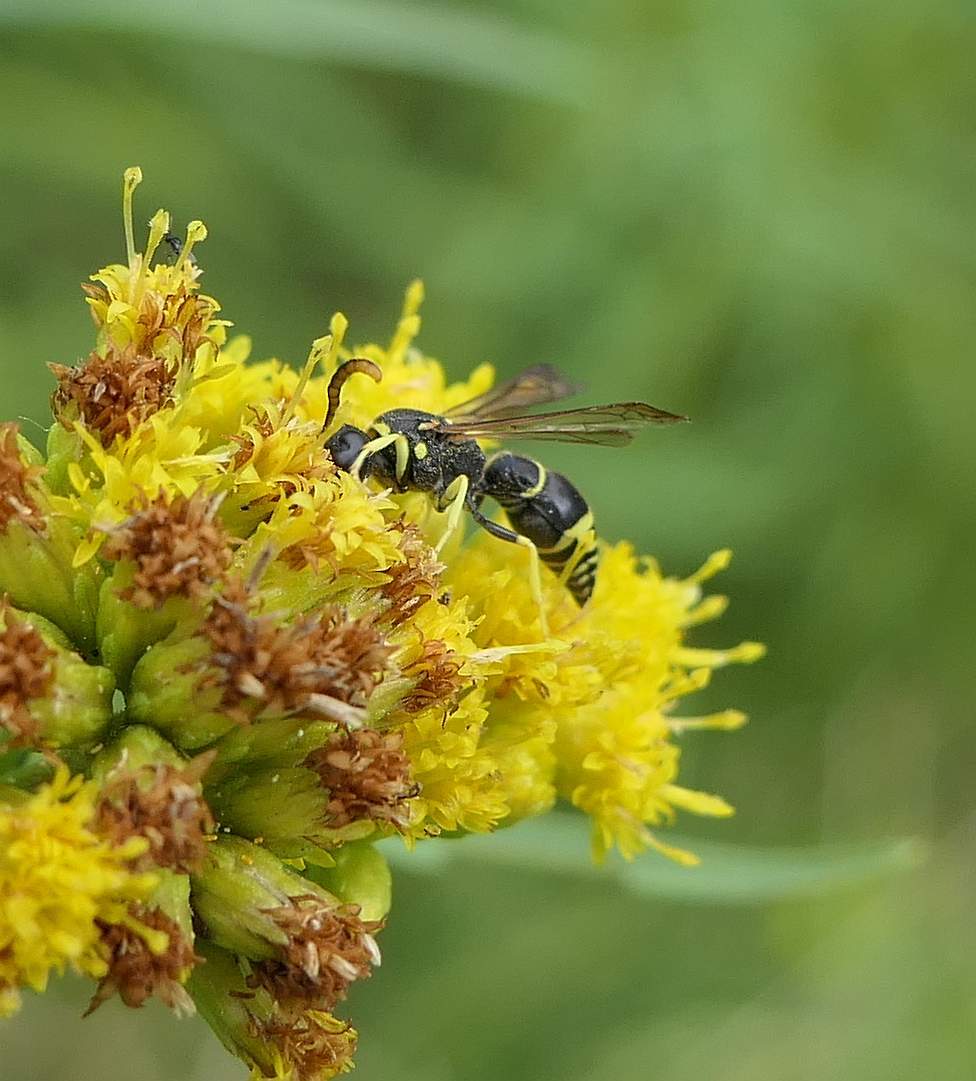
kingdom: Animalia
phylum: Arthropoda
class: Insecta
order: Hymenoptera
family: Vespidae
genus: Ancistrocerus
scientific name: Ancistrocerus
